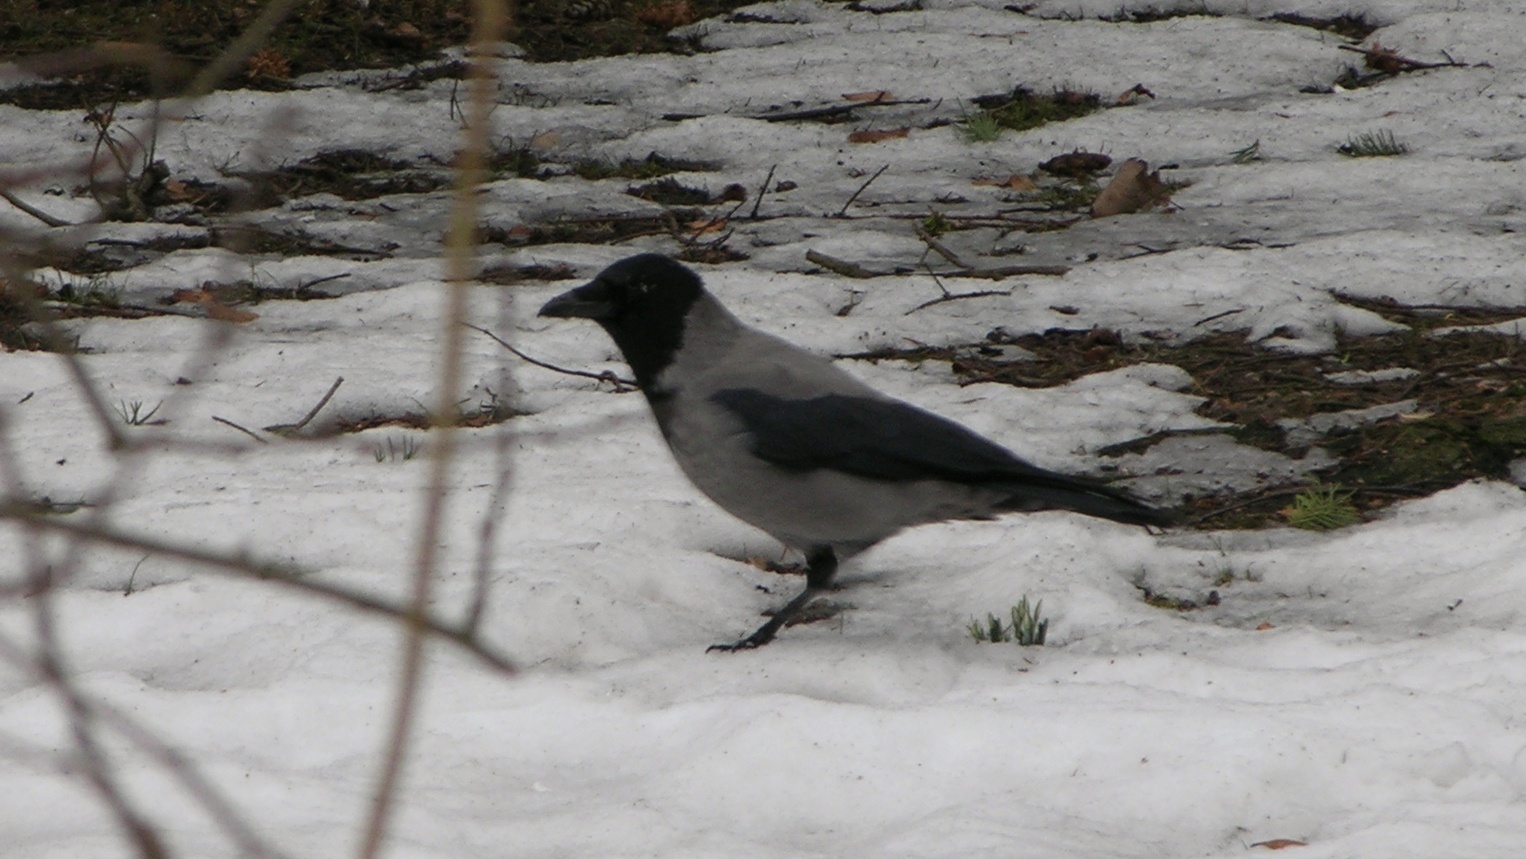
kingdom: Animalia
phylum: Chordata
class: Aves
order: Passeriformes
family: Corvidae
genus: Corvus
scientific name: Corvus cornix
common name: Hooded crow
